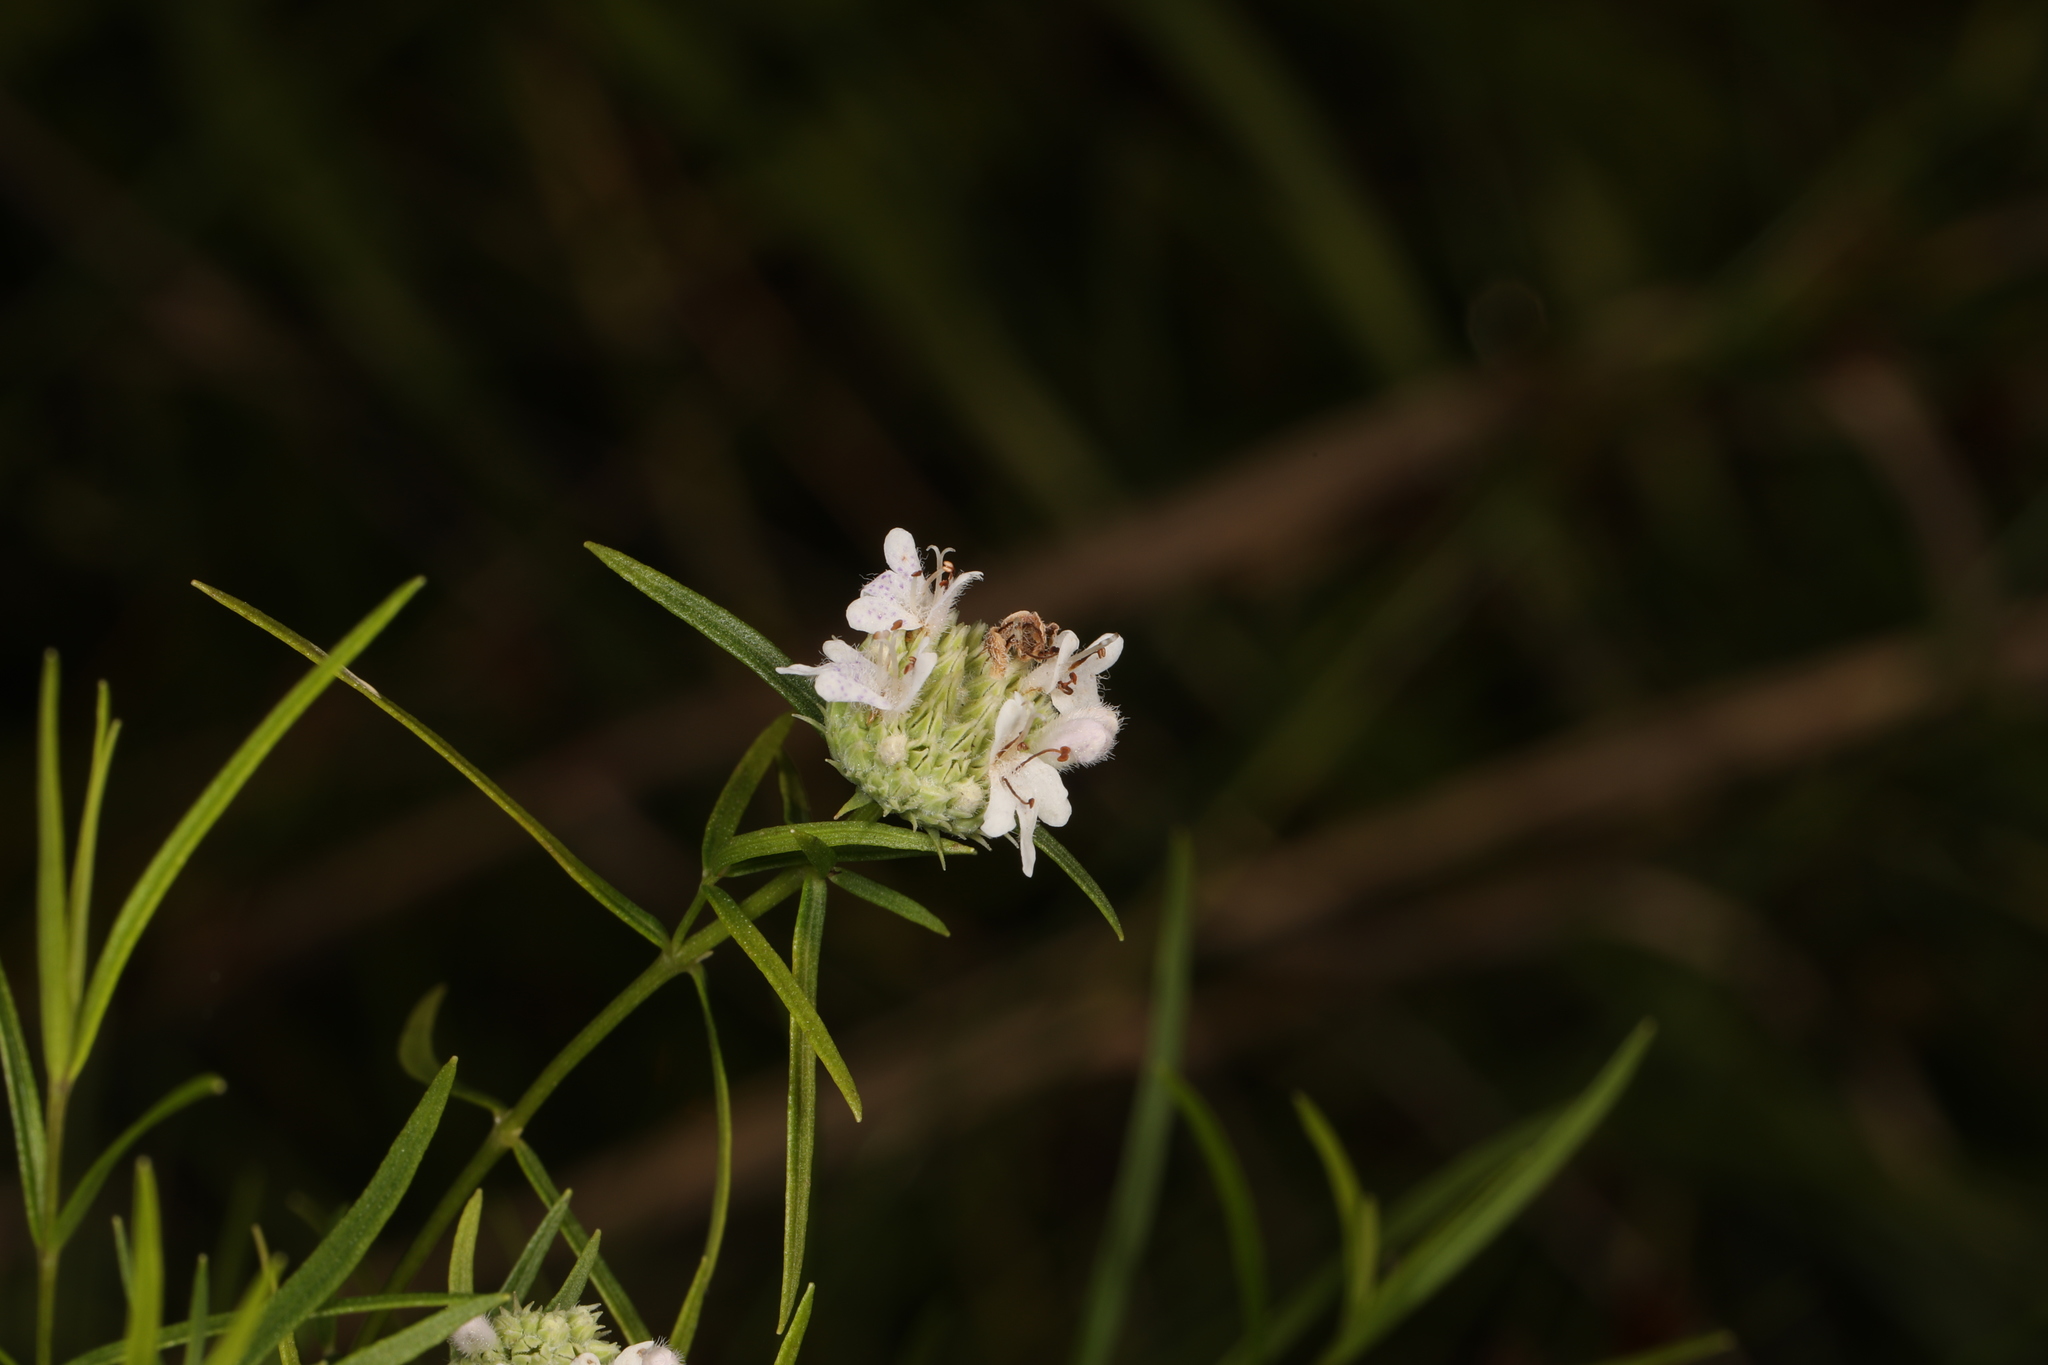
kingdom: Plantae
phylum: Tracheophyta
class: Magnoliopsida
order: Lamiales
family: Lamiaceae
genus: Pycnanthemum
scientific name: Pycnanthemum tenuifolium
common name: Narrow-leaf mountain-mint
